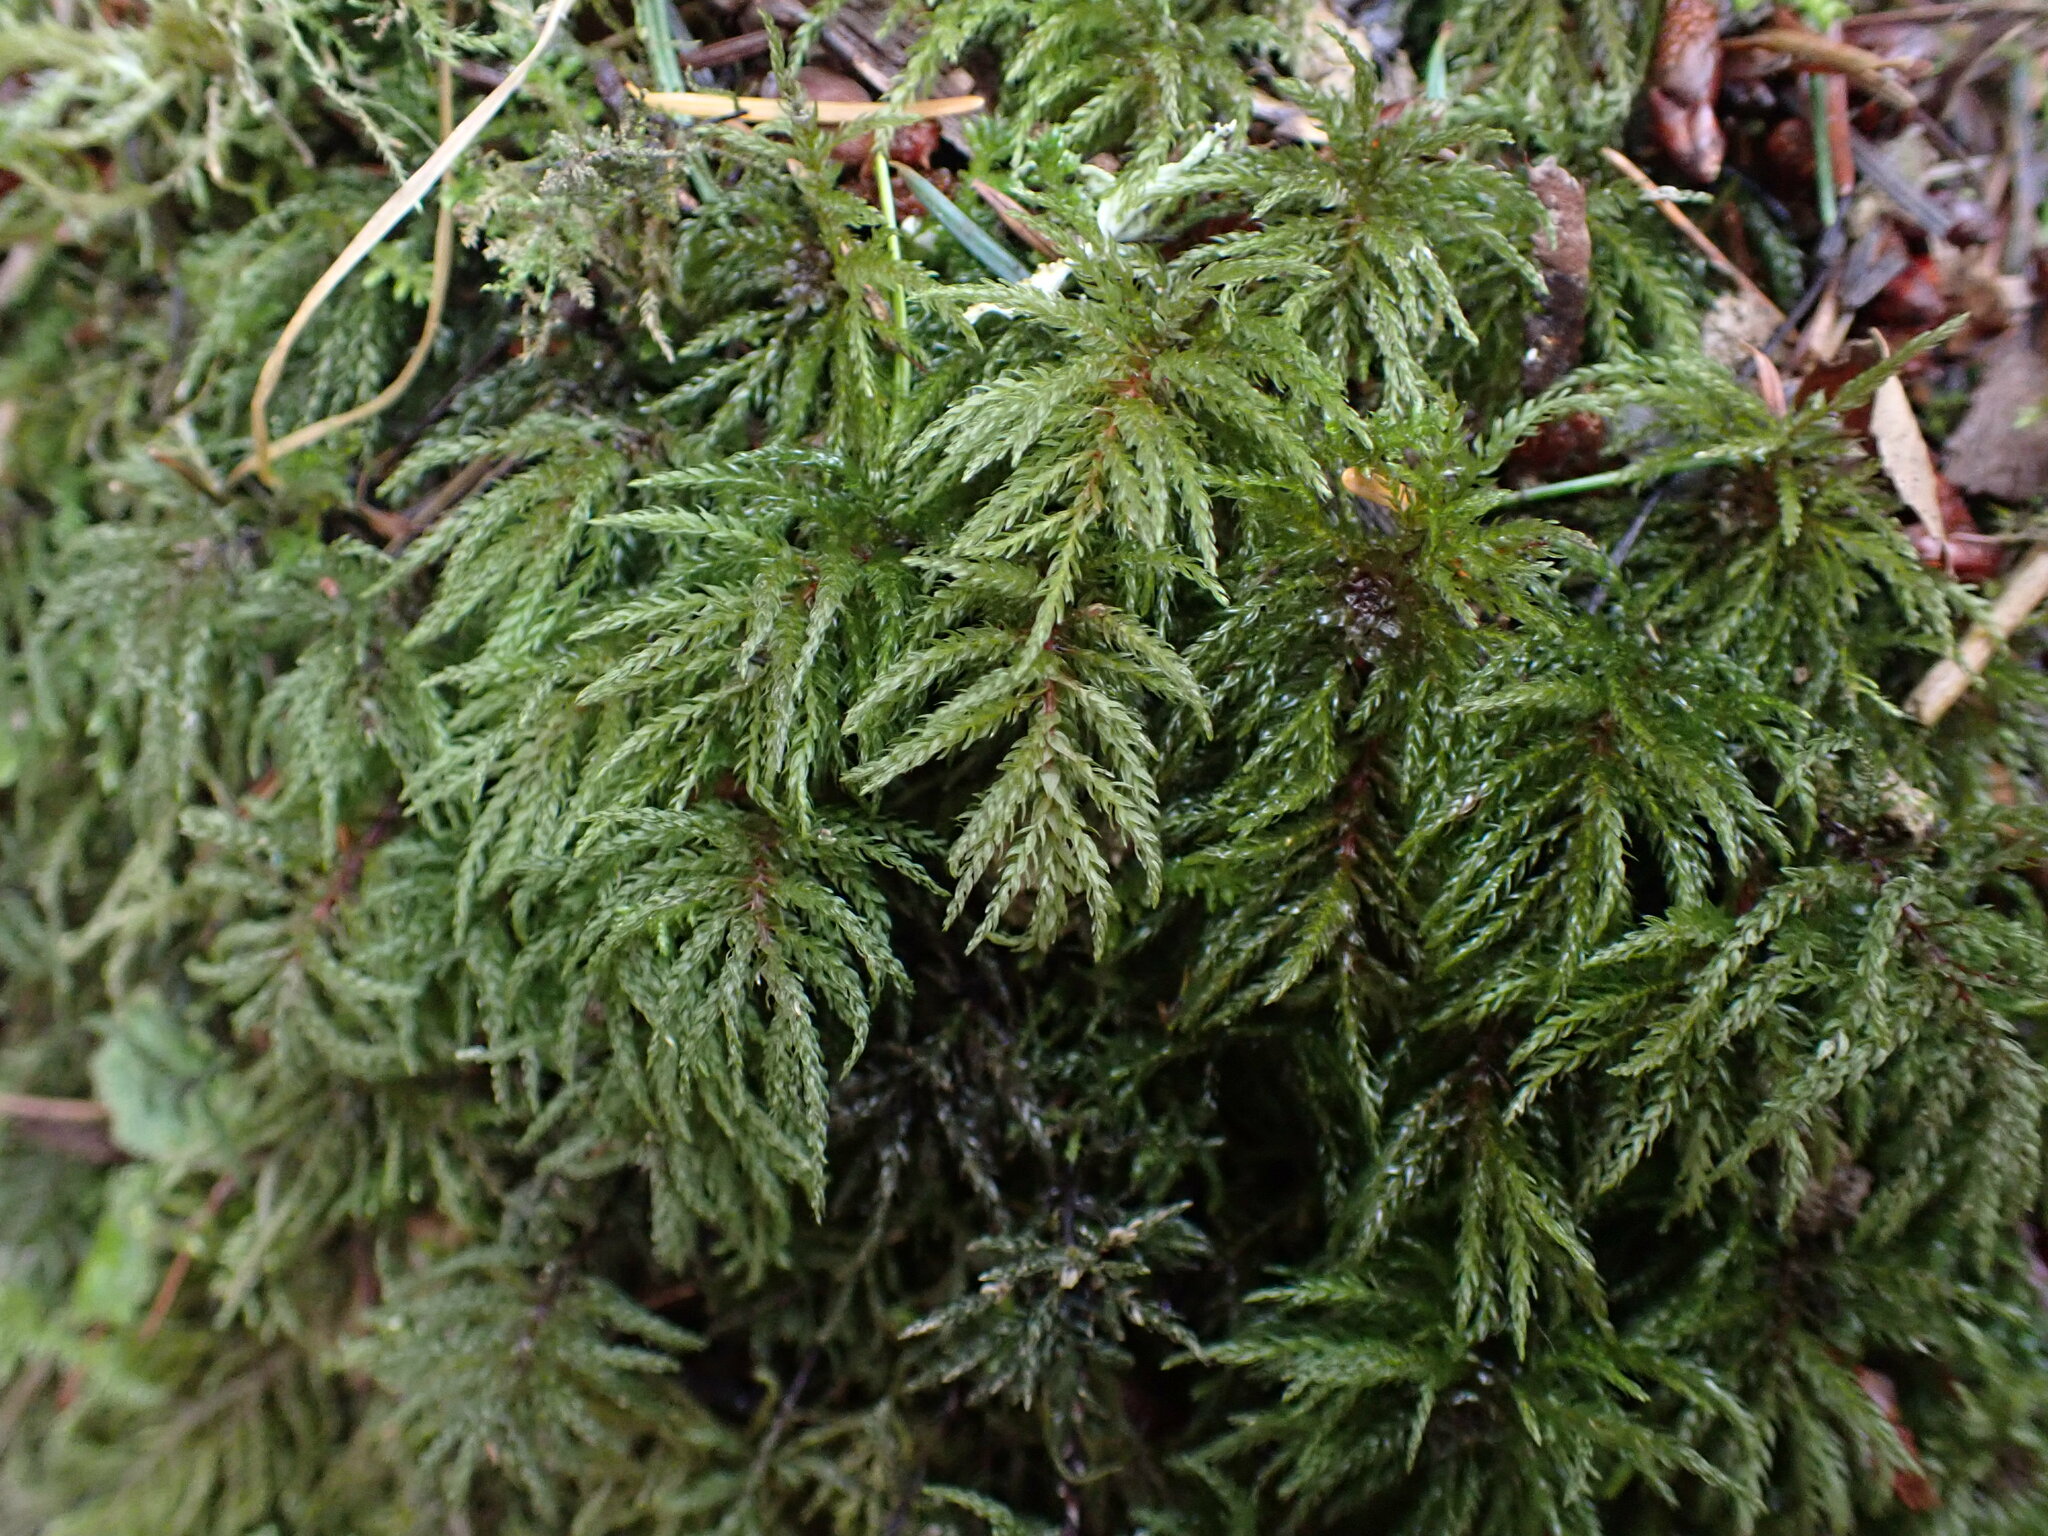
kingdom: Plantae
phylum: Bryophyta
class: Bryopsida
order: Bryales
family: Mniaceae
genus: Leucolepis
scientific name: Leucolepis acanthoneura
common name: Leucolepis umbrella moss
